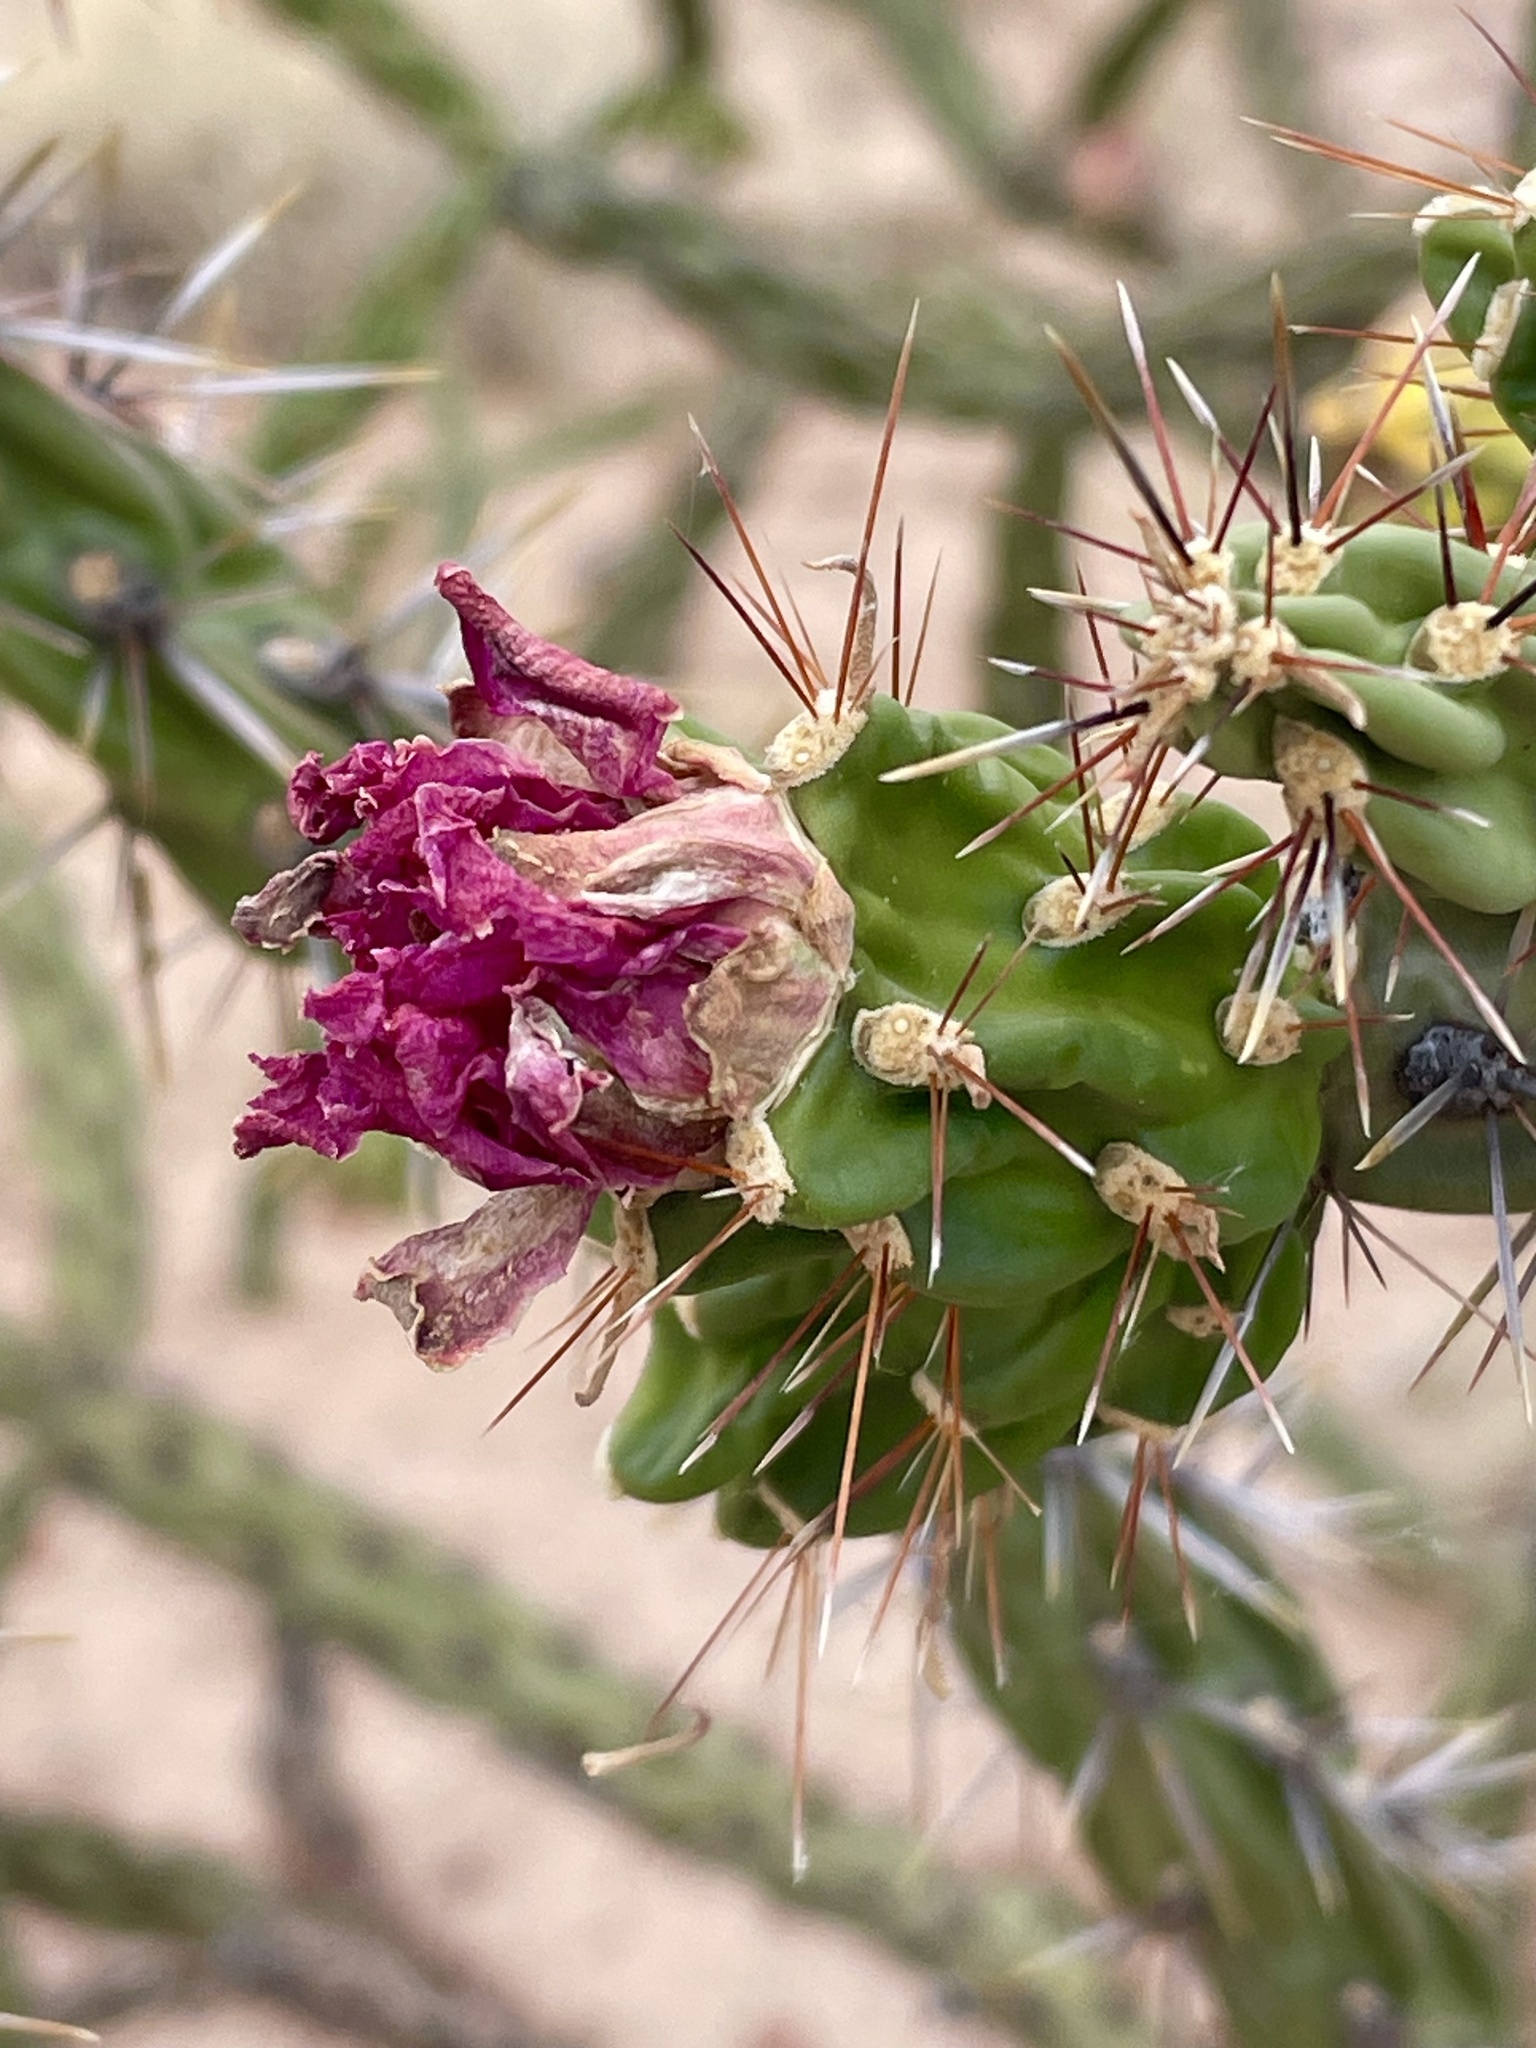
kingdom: Plantae
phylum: Tracheophyta
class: Magnoliopsida
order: Caryophyllales
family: Cactaceae
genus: Cylindropuntia
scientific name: Cylindropuntia imbricata
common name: Candelabrum cactus
